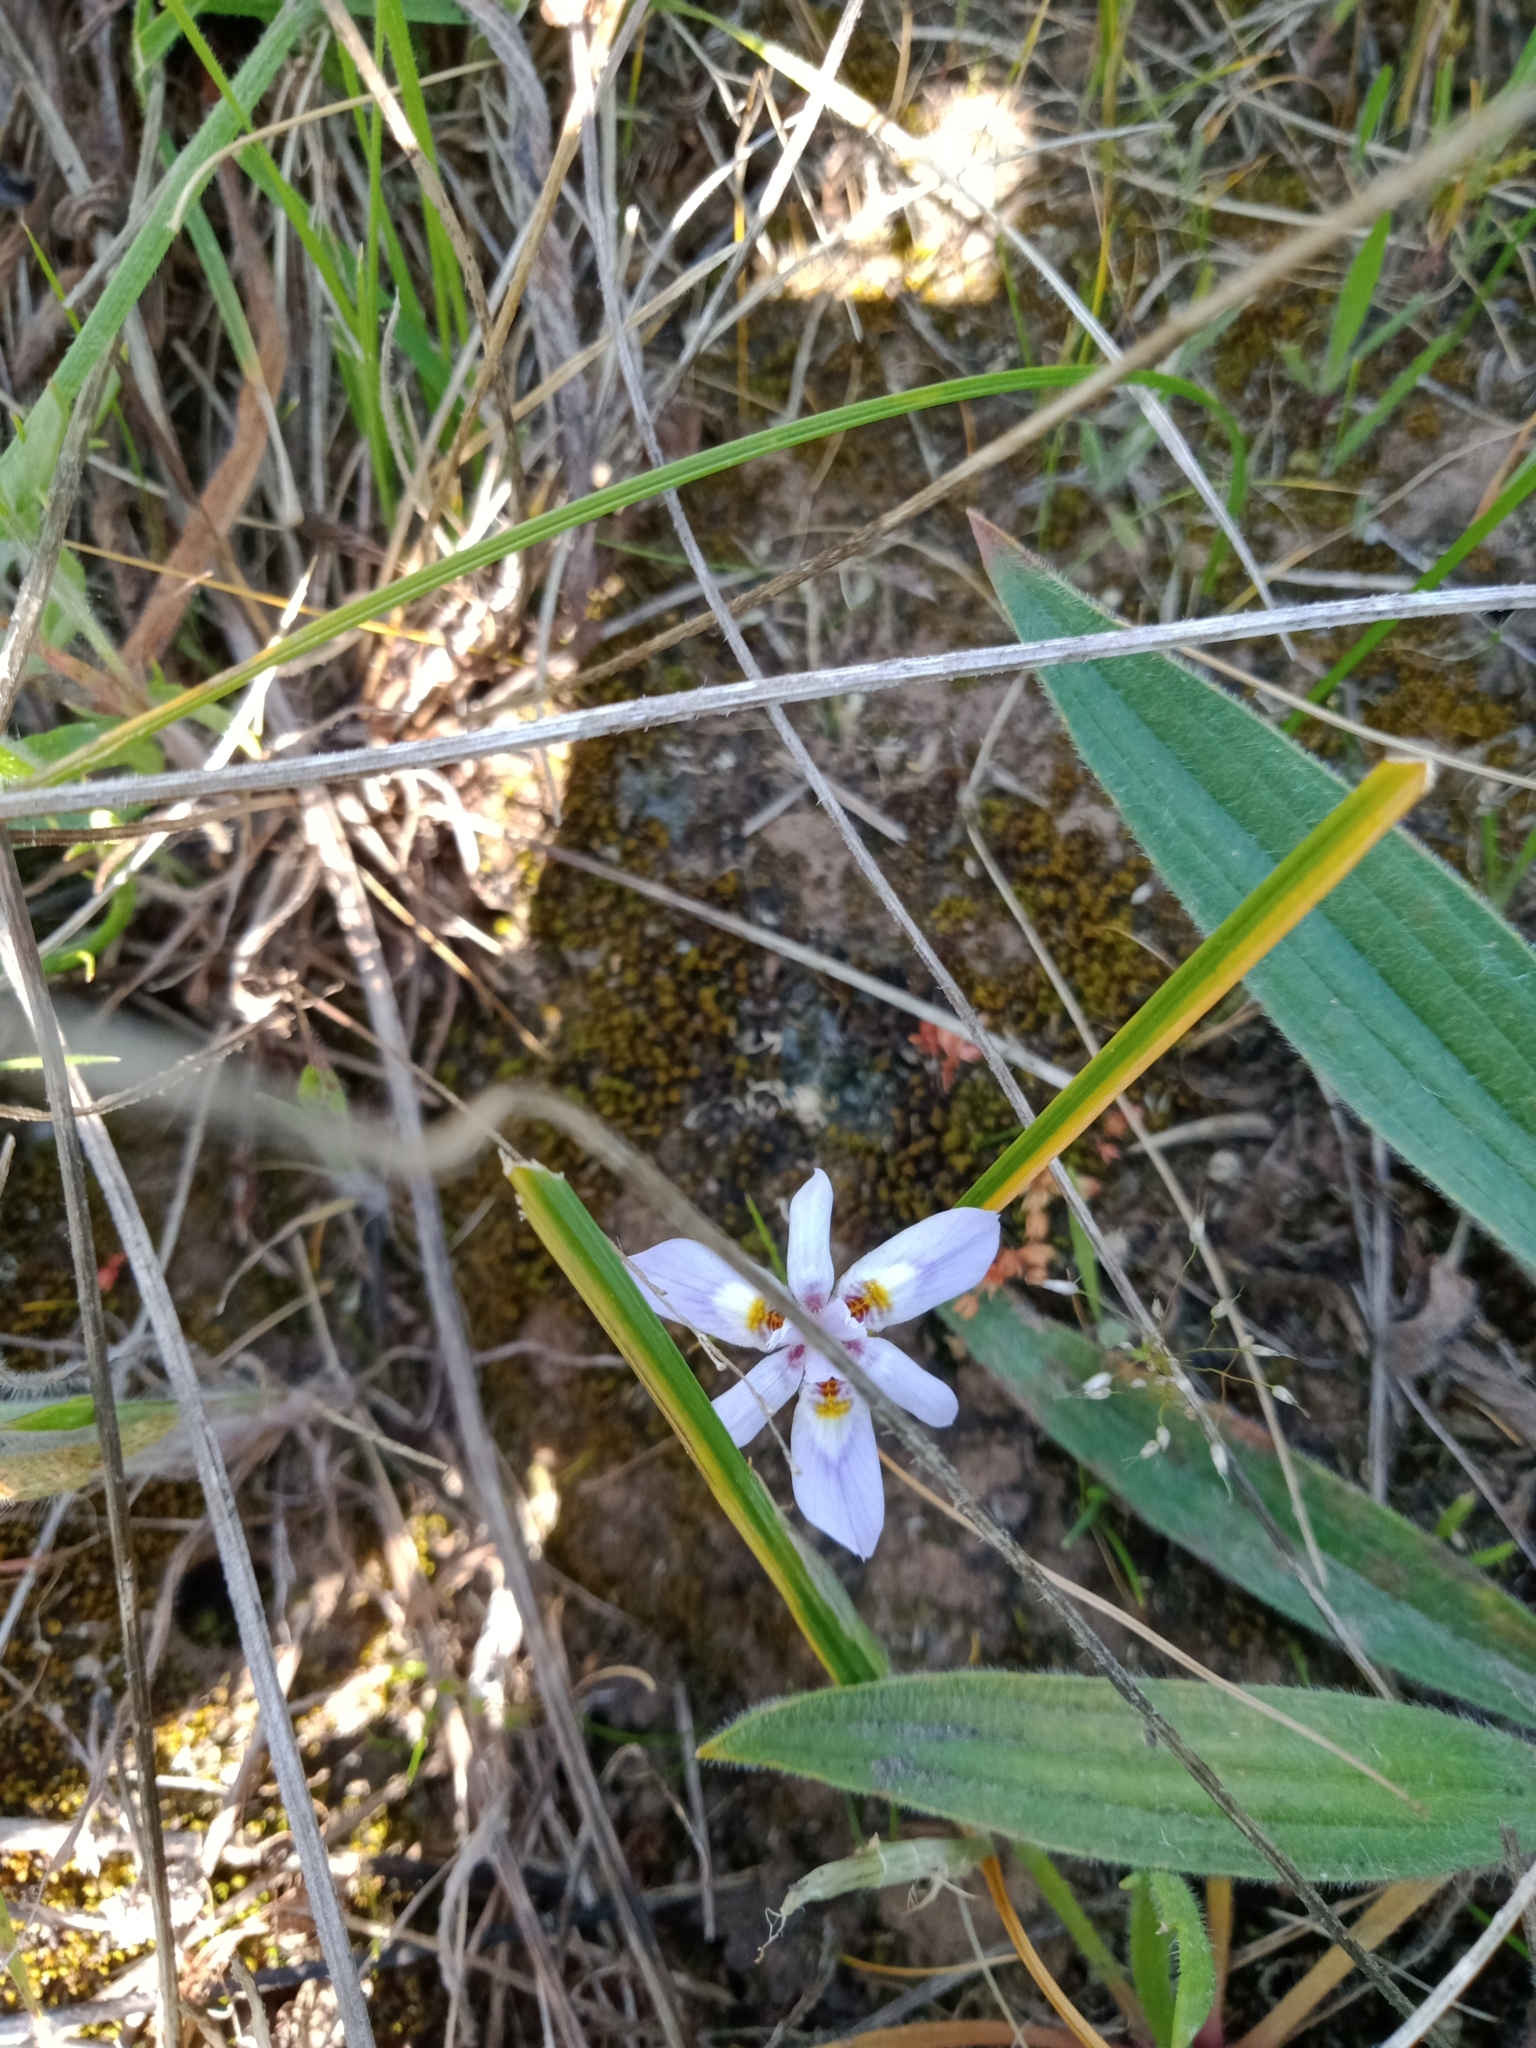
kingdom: Plantae
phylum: Tracheophyta
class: Liliopsida
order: Asparagales
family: Iridaceae
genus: Moraea
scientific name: Moraea setifolia
